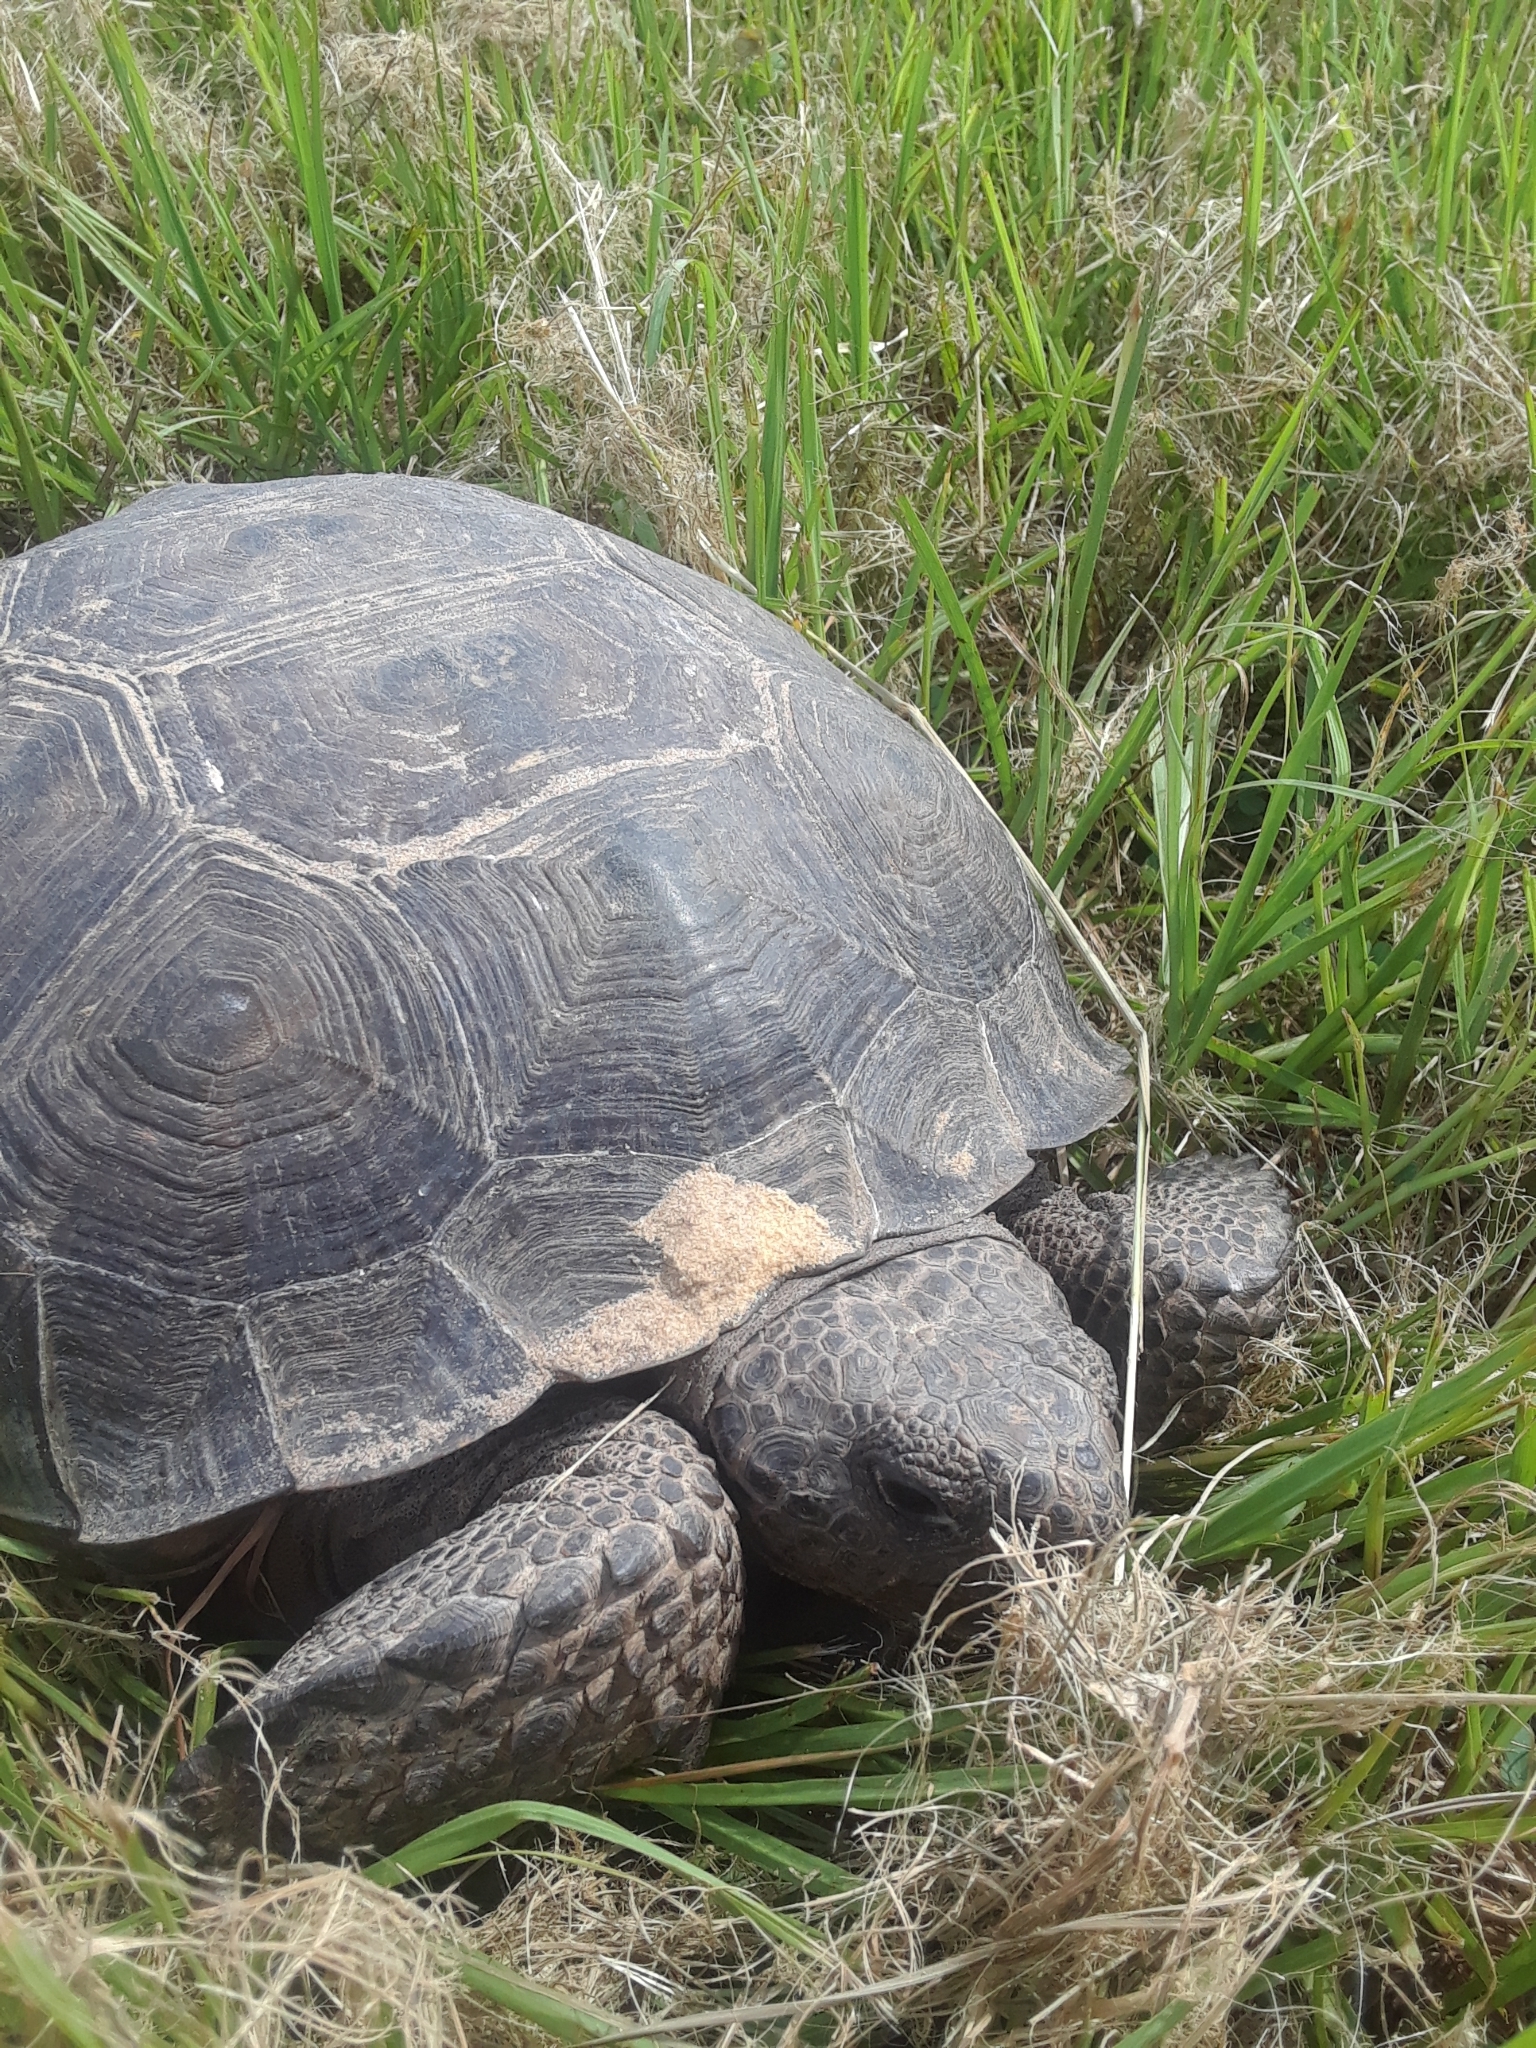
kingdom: Animalia
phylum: Chordata
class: Testudines
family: Testudinidae
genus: Gopherus
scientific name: Gopherus polyphemus
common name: Florida gopher tortoise
